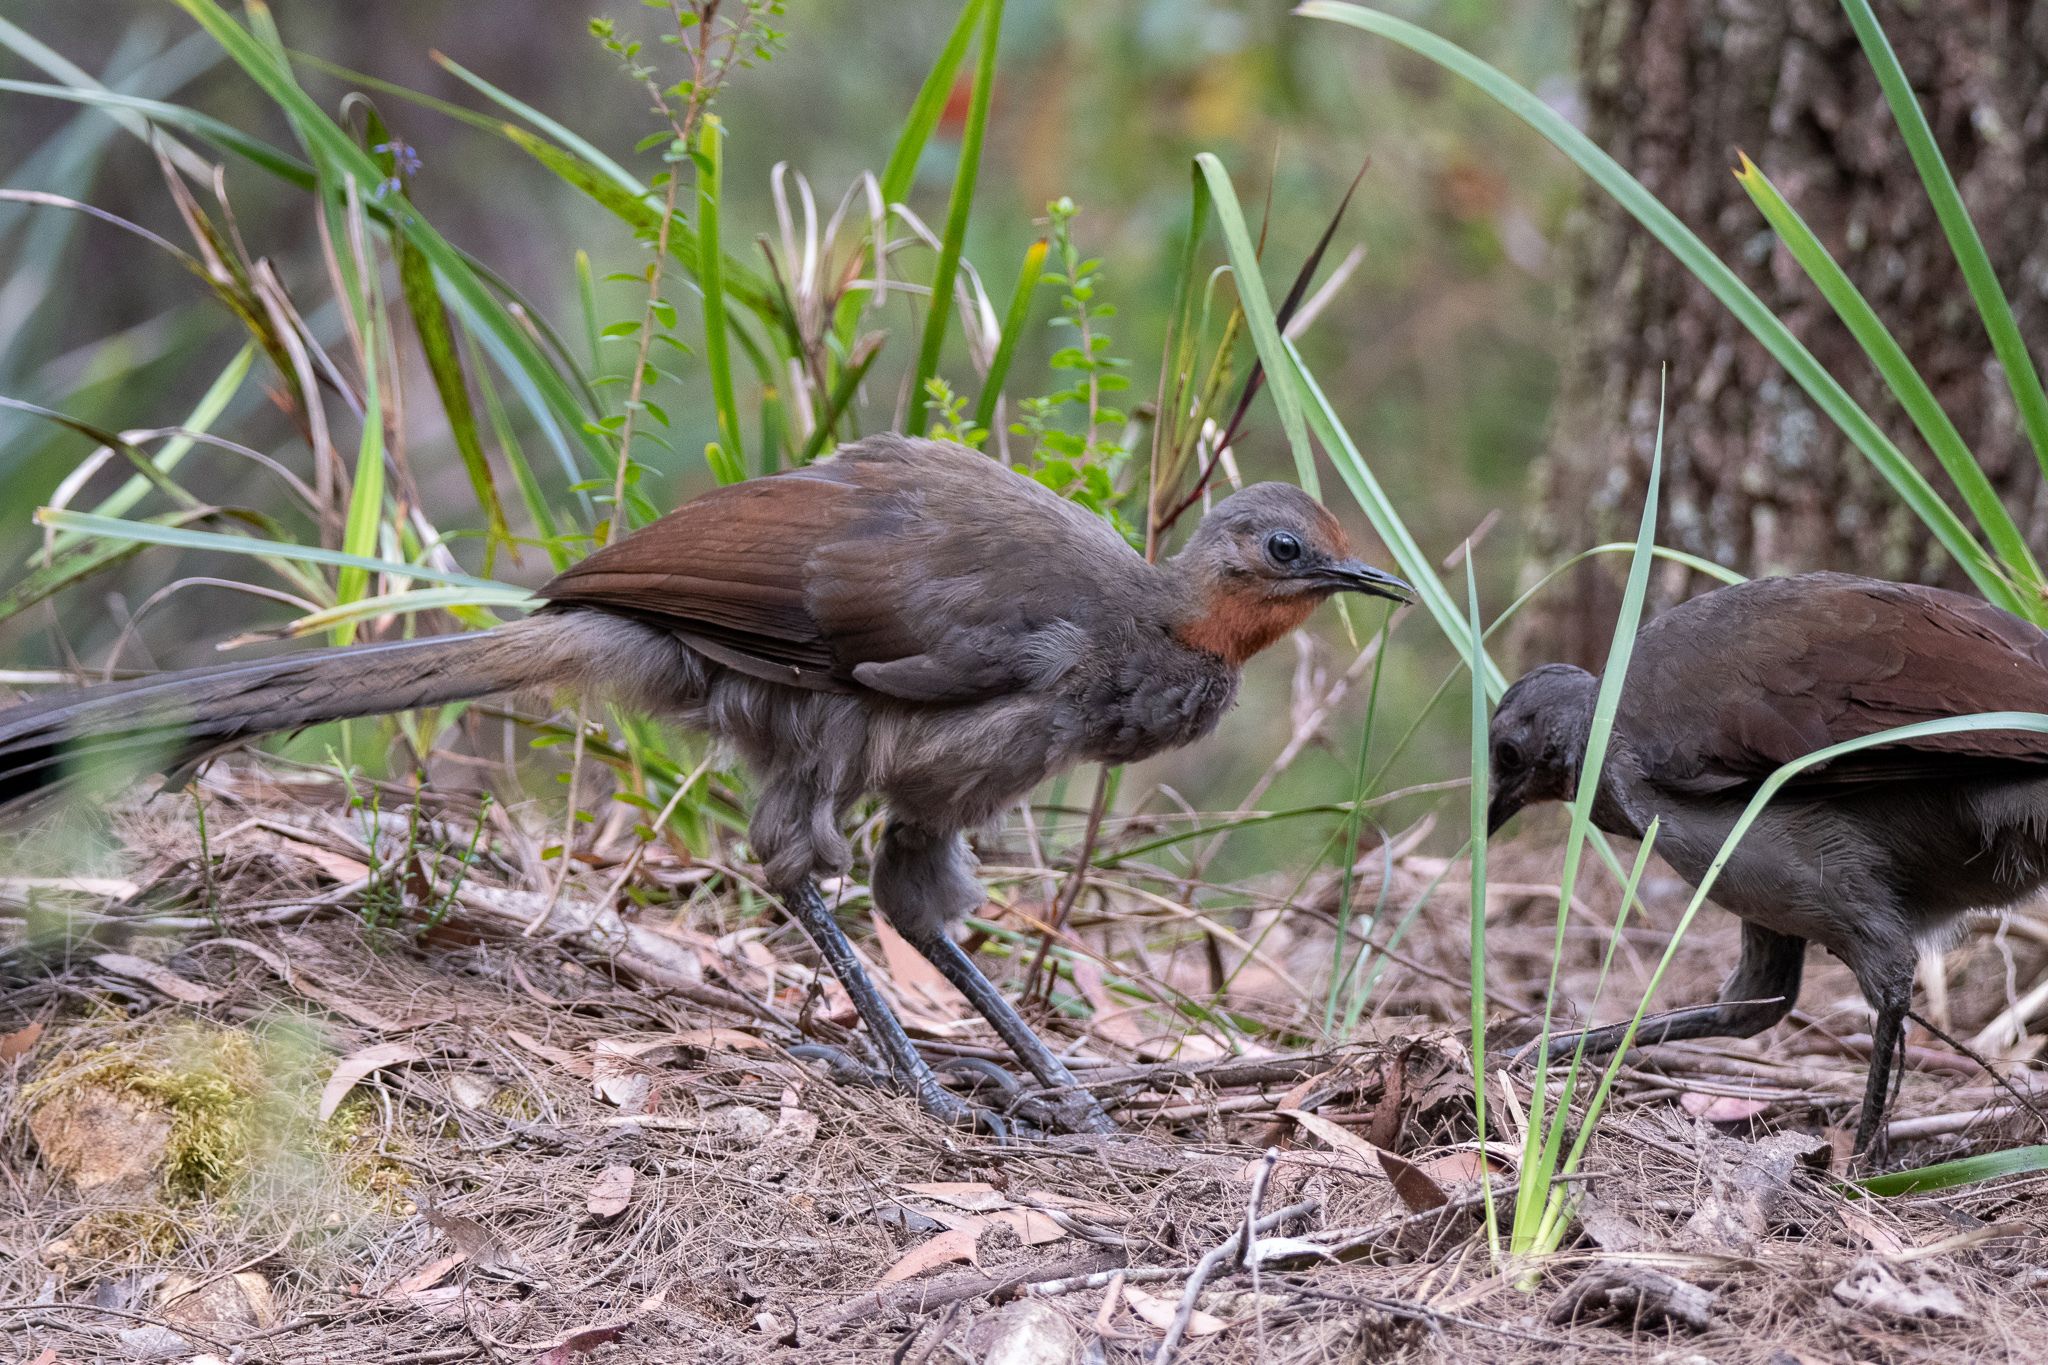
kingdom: Animalia
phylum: Chordata
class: Aves
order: Passeriformes
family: Menuridae
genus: Menura
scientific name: Menura novaehollandiae
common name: Superb lyrebird
